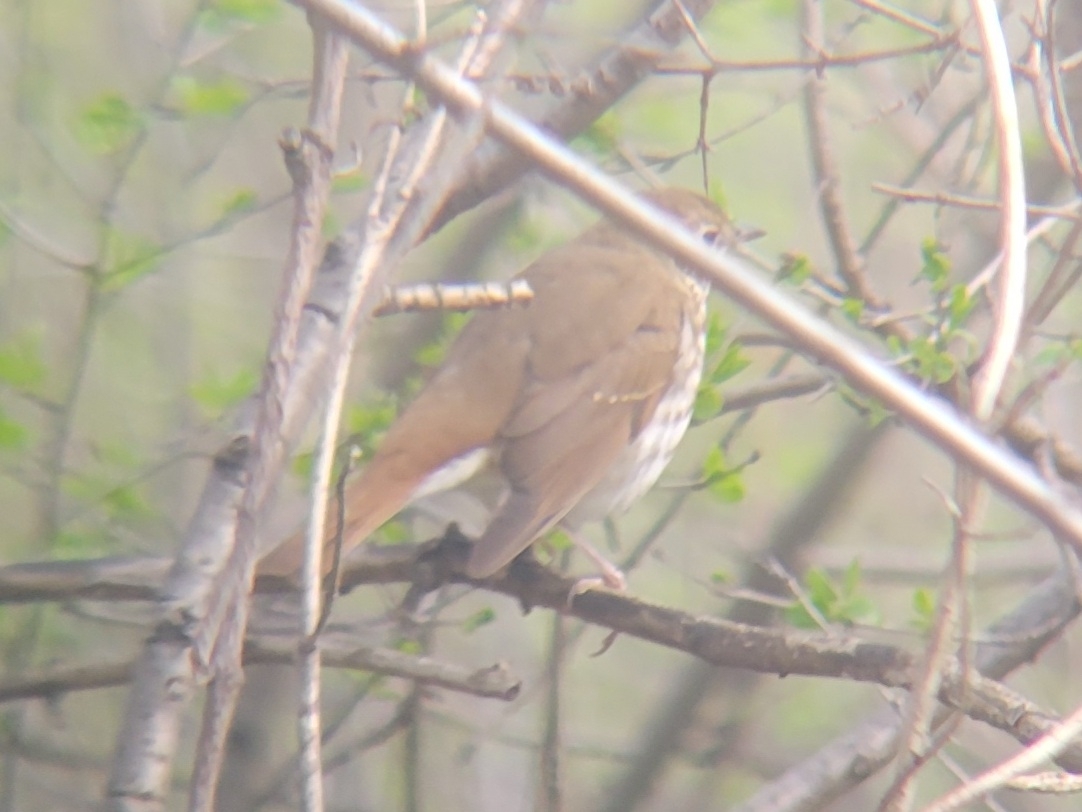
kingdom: Animalia
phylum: Chordata
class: Aves
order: Passeriformes
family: Turdidae
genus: Catharus
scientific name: Catharus guttatus
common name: Hermit thrush
